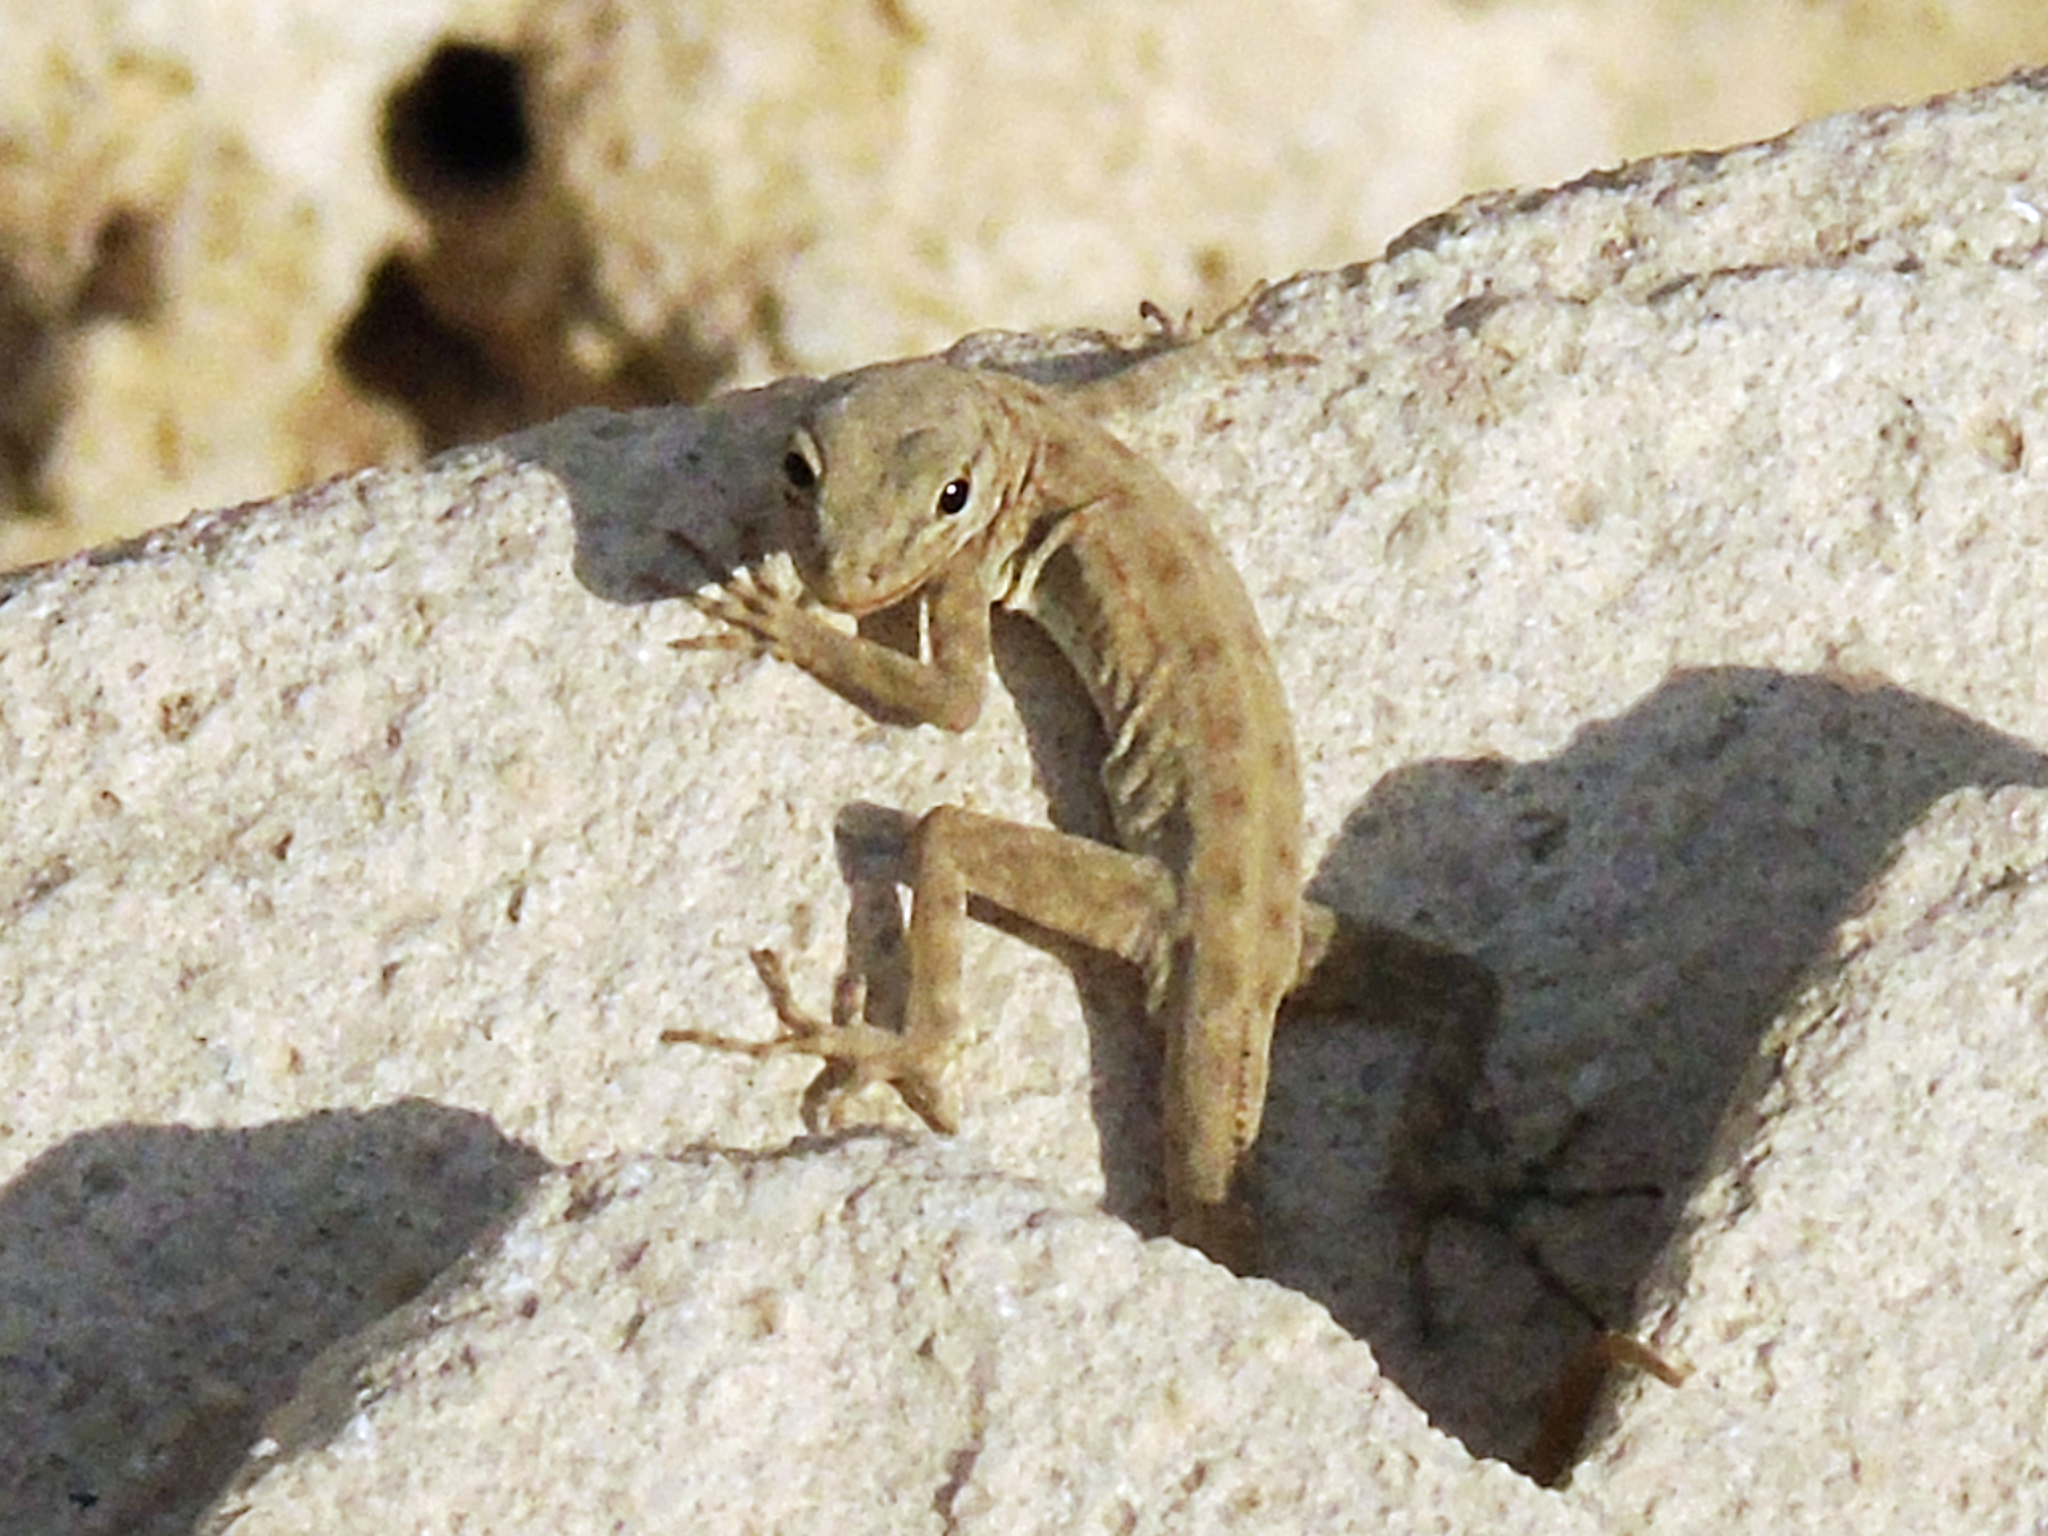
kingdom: Animalia
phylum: Chordata
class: Squamata
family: Sphaerodactylidae
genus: Pristurus
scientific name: Pristurus rupestris
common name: Blanford’s semaphore gecko
